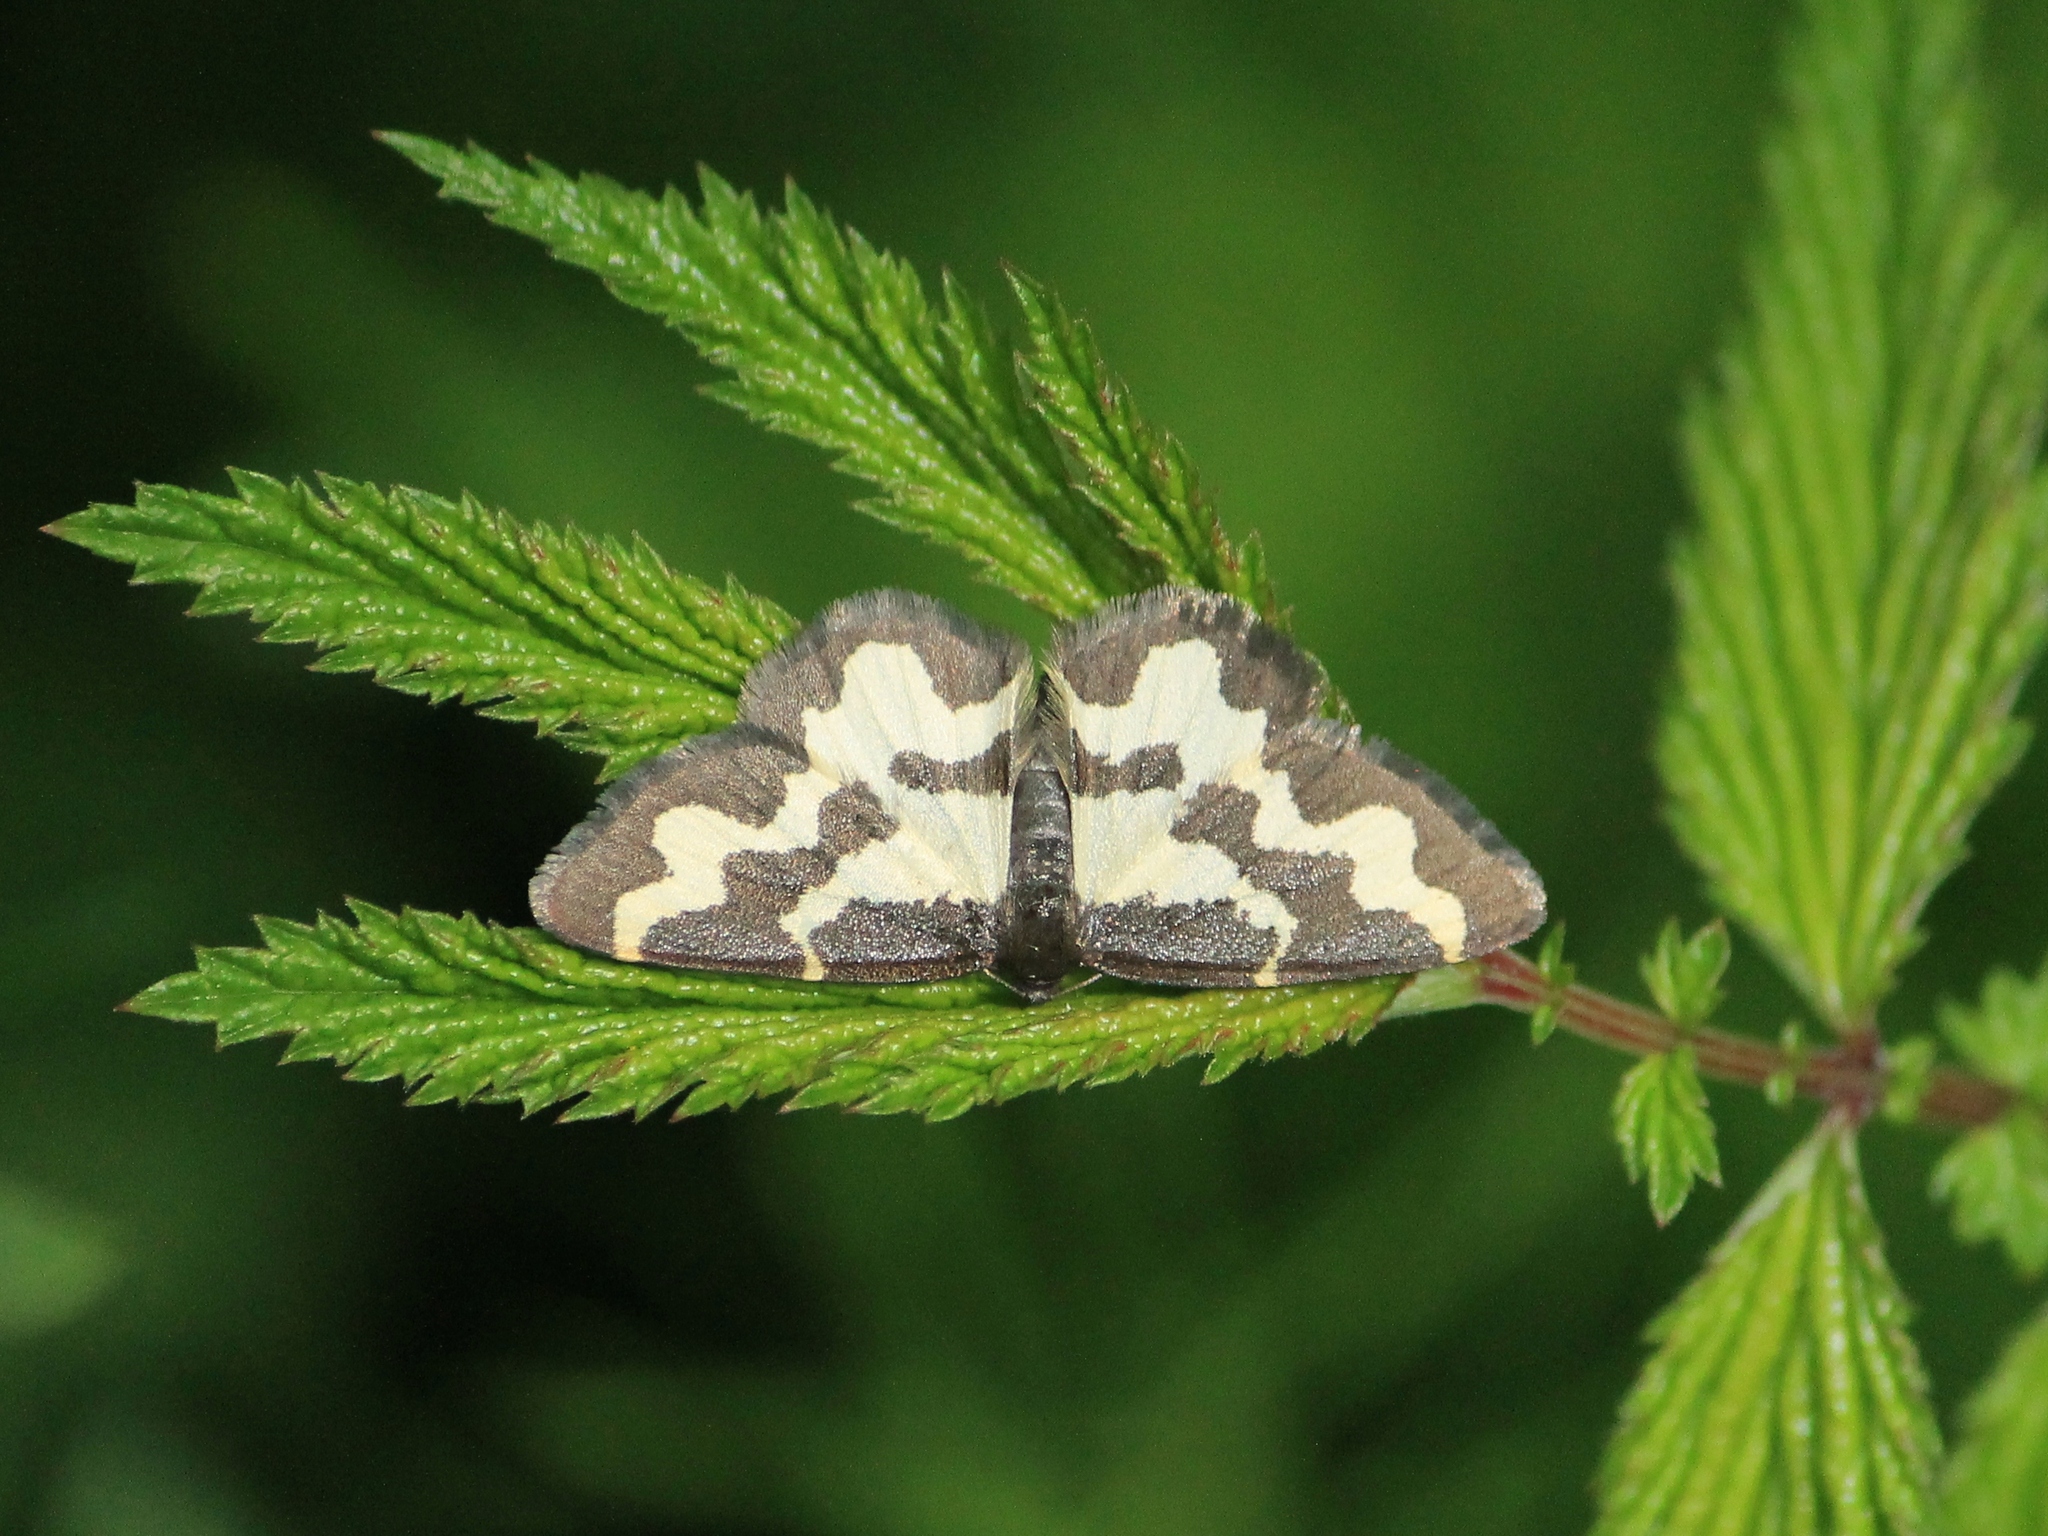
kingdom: Animalia
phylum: Arthropoda
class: Insecta
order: Lepidoptera
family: Geometridae
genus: Lomaspilis
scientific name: Lomaspilis marginata
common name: Clouded border
